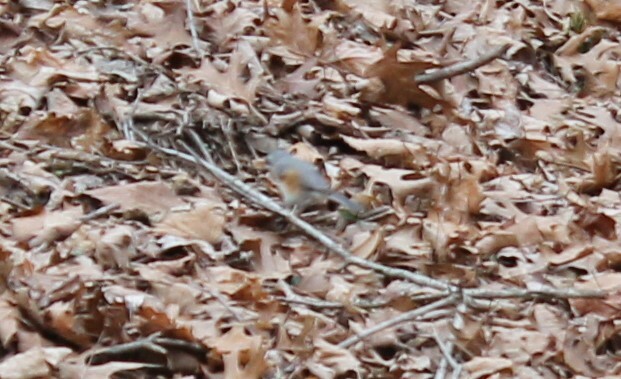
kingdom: Animalia
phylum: Chordata
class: Aves
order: Passeriformes
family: Paridae
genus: Baeolophus
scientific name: Baeolophus bicolor
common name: Tufted titmouse
